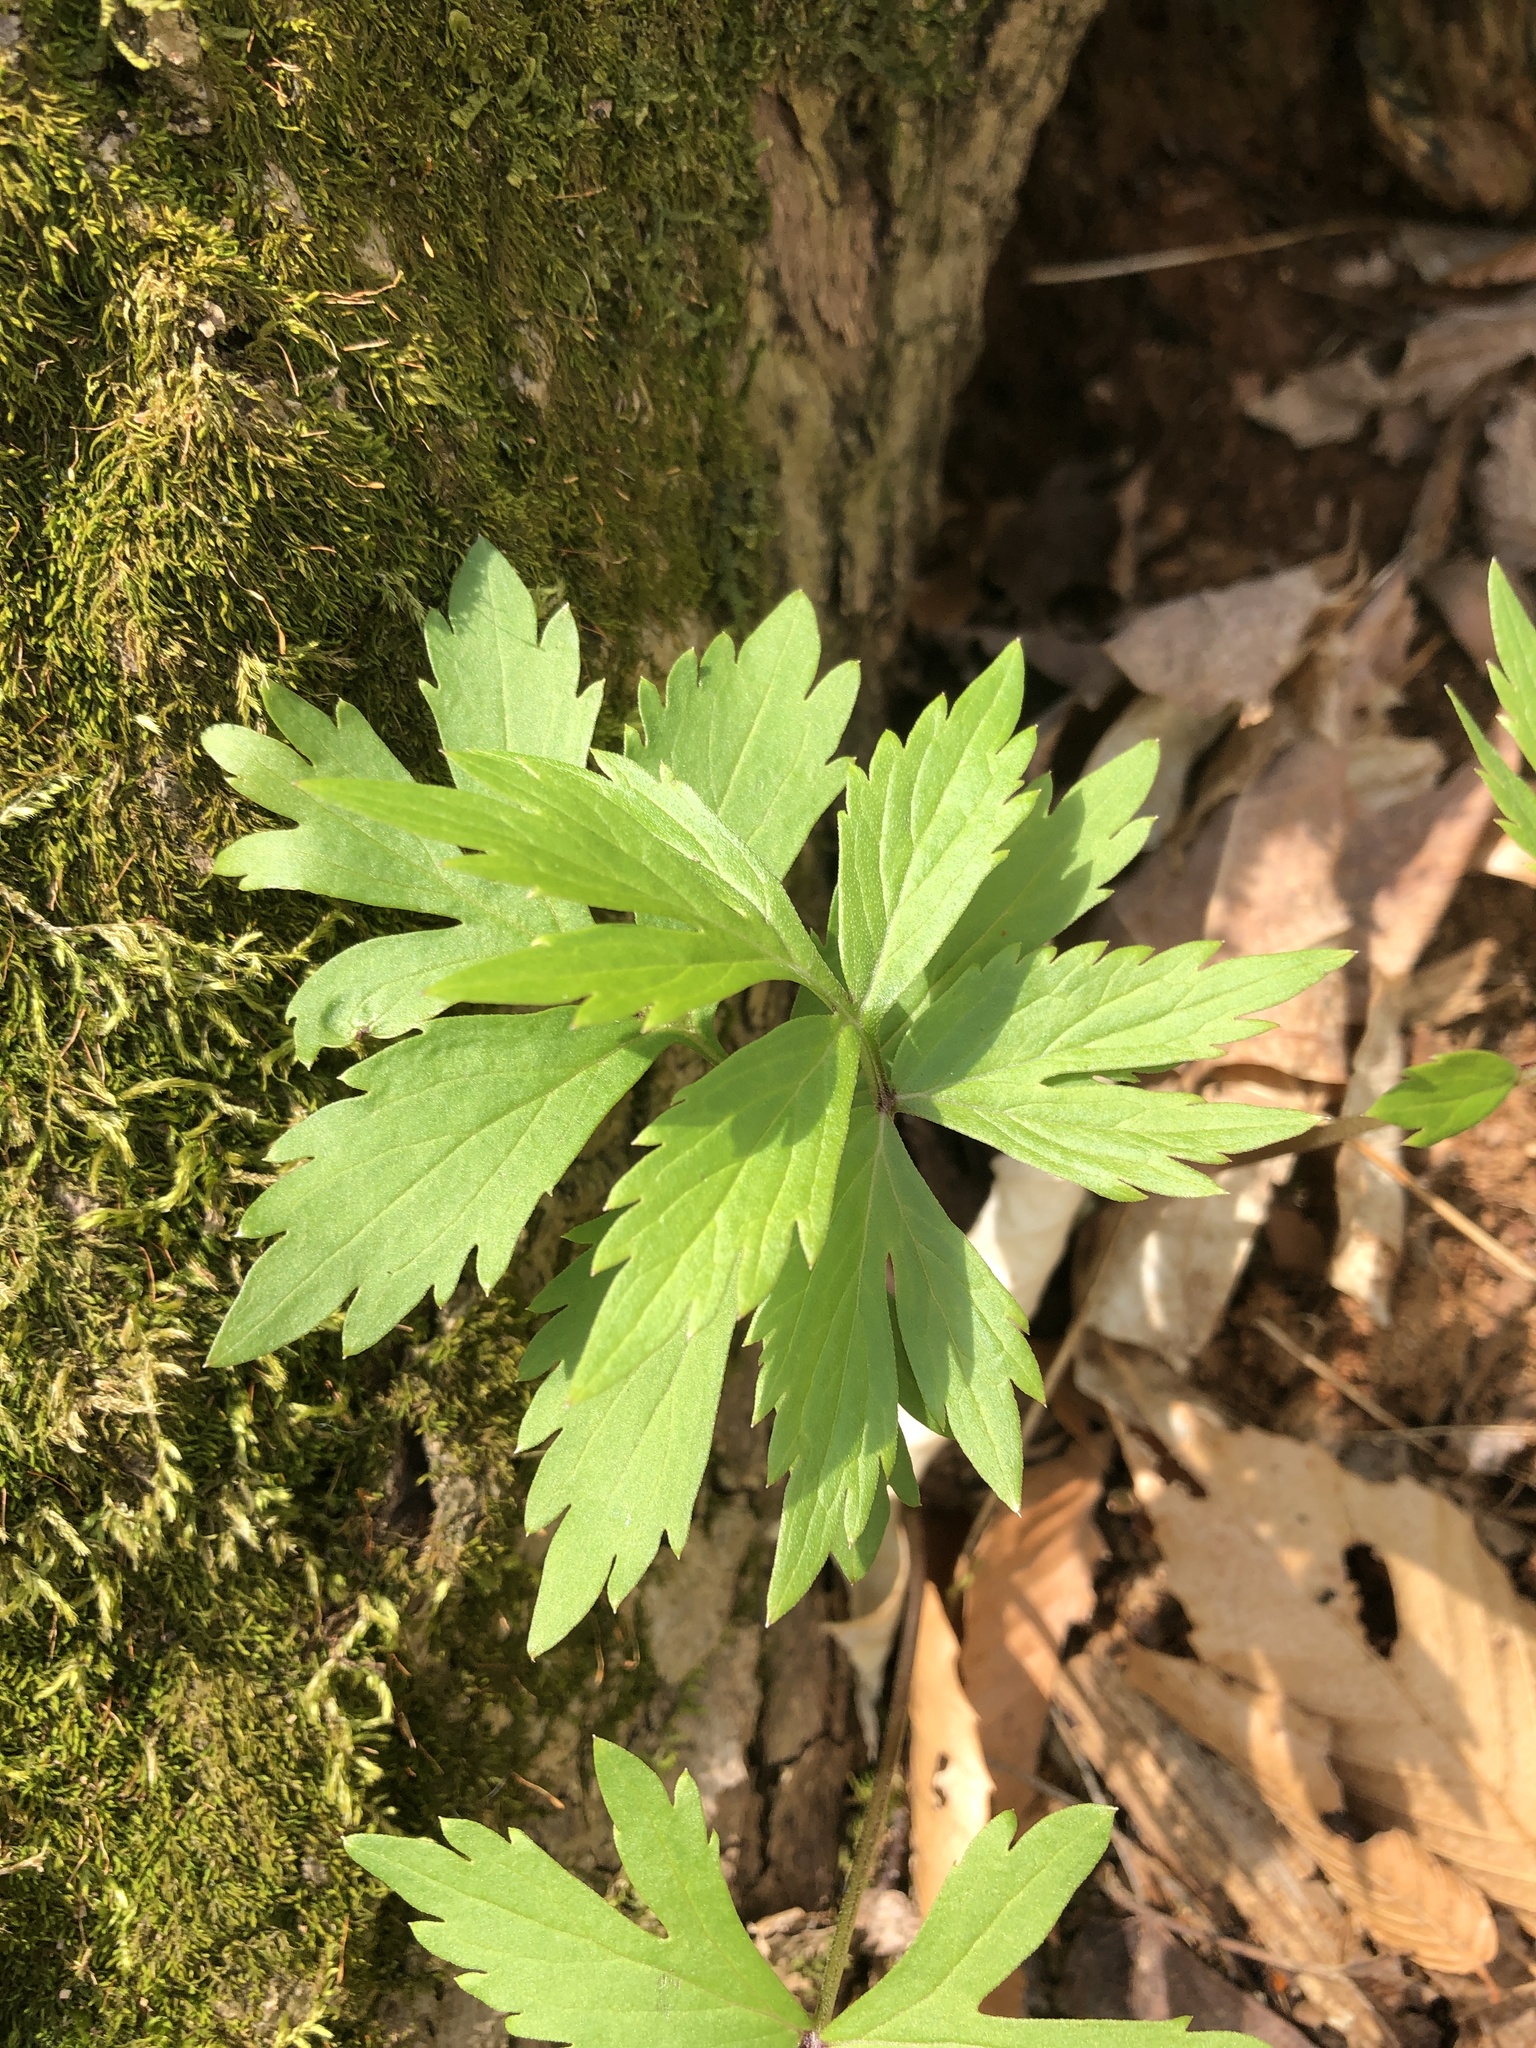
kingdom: Plantae
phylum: Tracheophyta
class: Magnoliopsida
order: Boraginales
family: Hydrophyllaceae
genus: Hydrophyllum
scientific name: Hydrophyllum virginianum
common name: Virginia waterleaf
